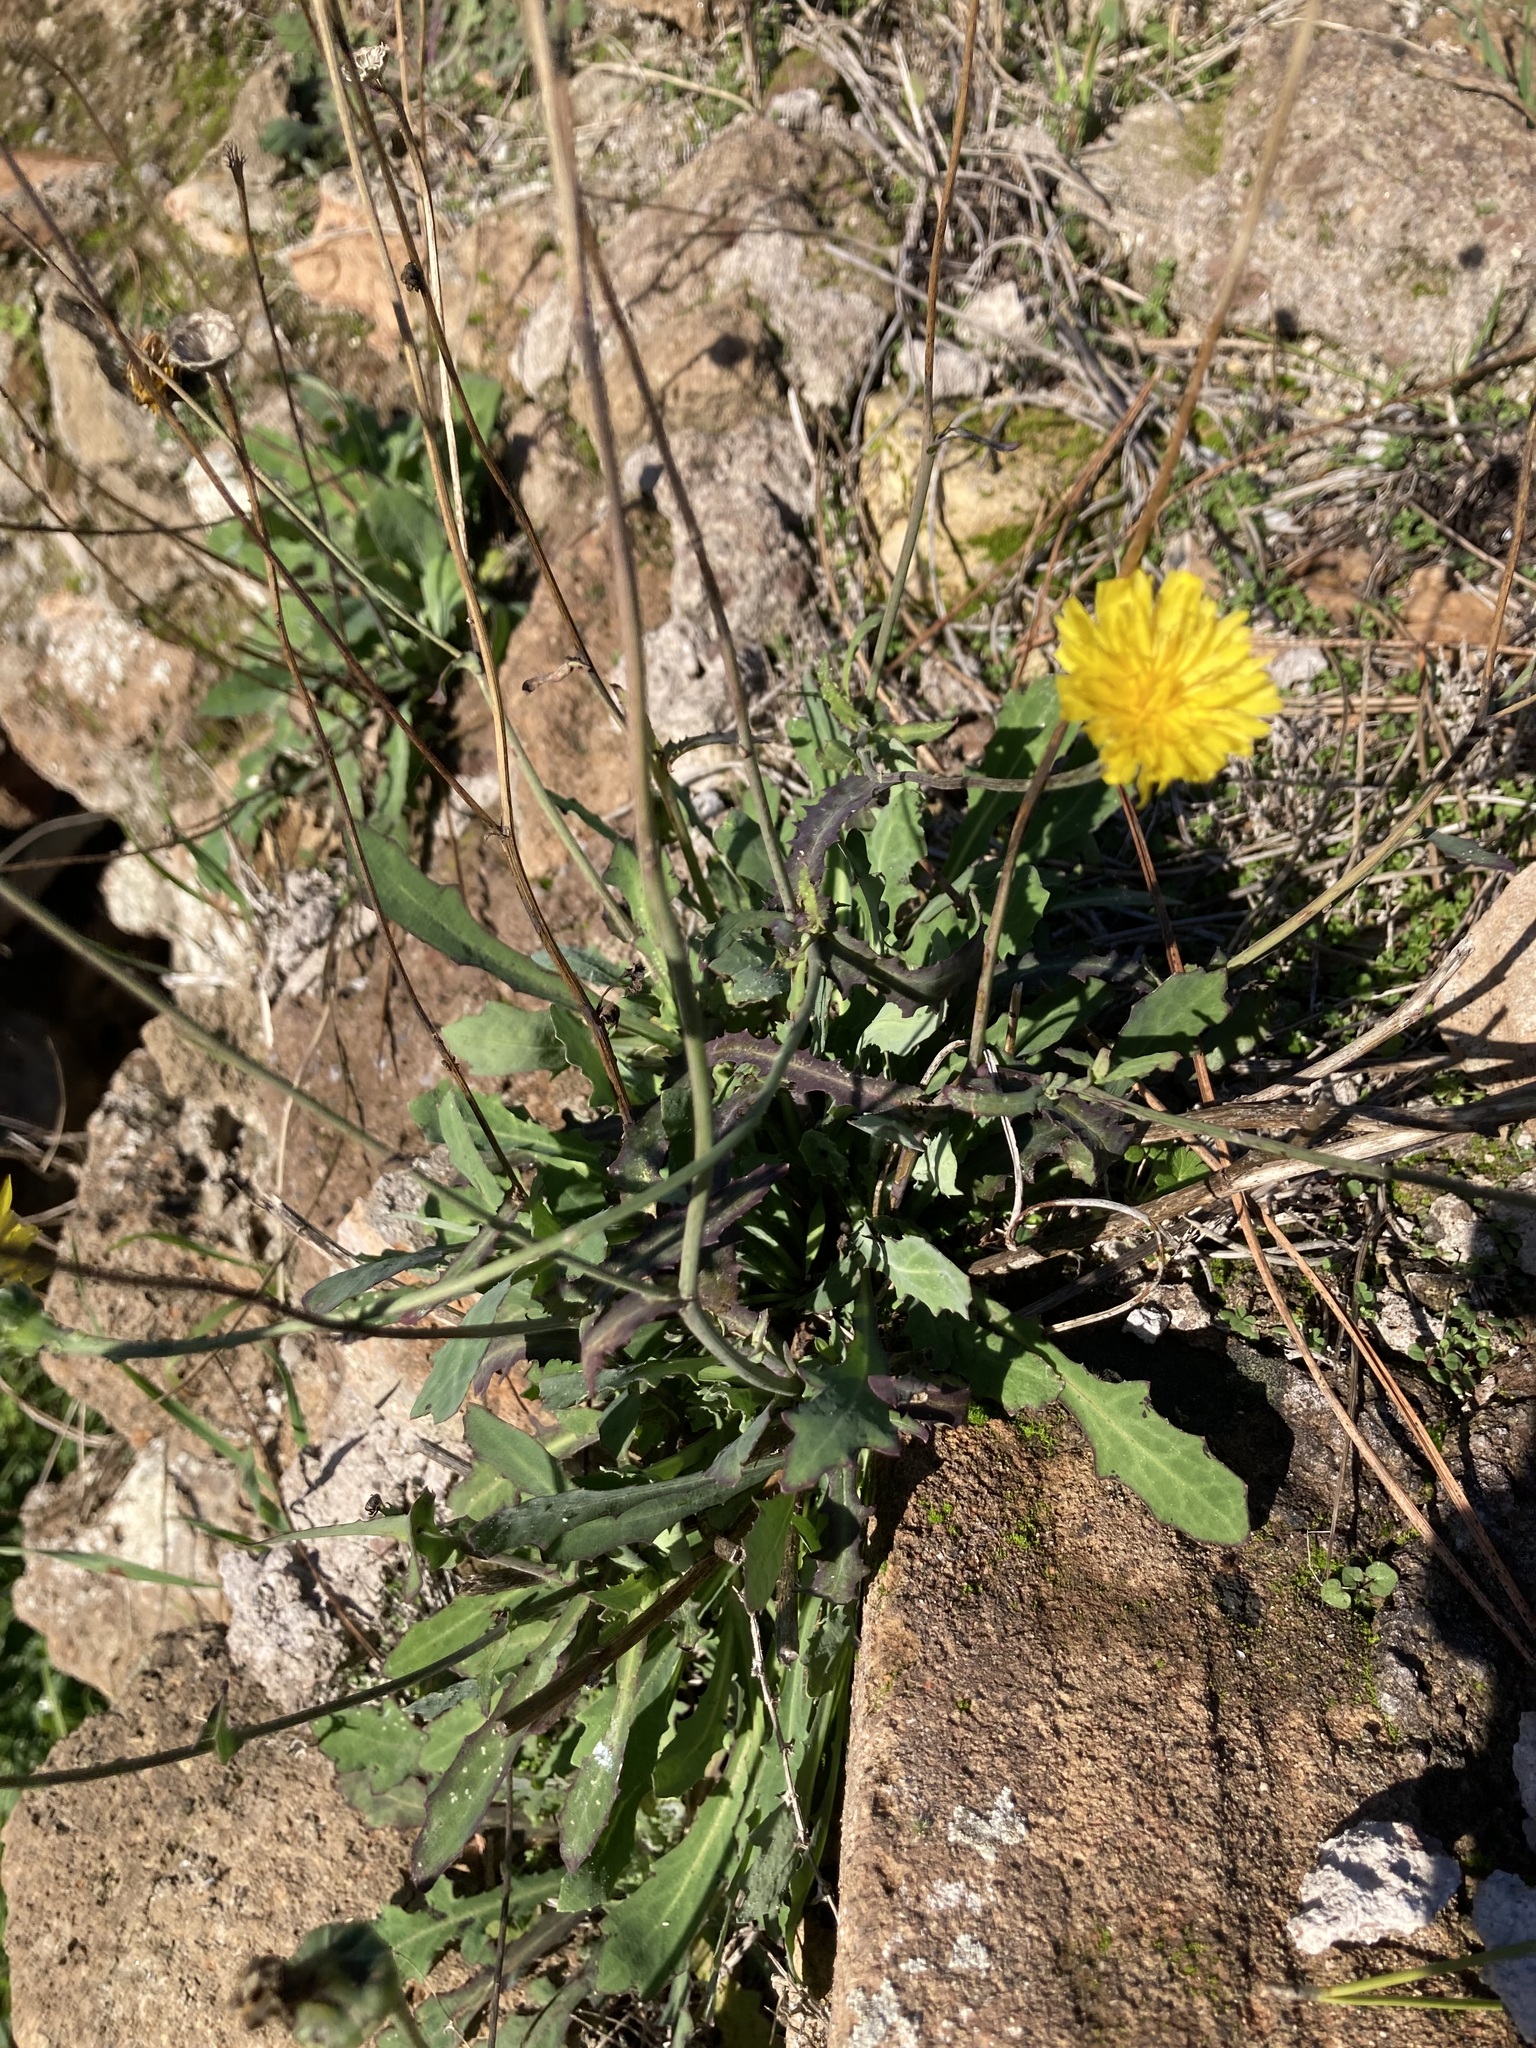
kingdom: Plantae
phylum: Tracheophyta
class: Magnoliopsida
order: Asterales
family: Asteraceae
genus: Reichardia
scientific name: Reichardia picroides
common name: Common brighteyes
